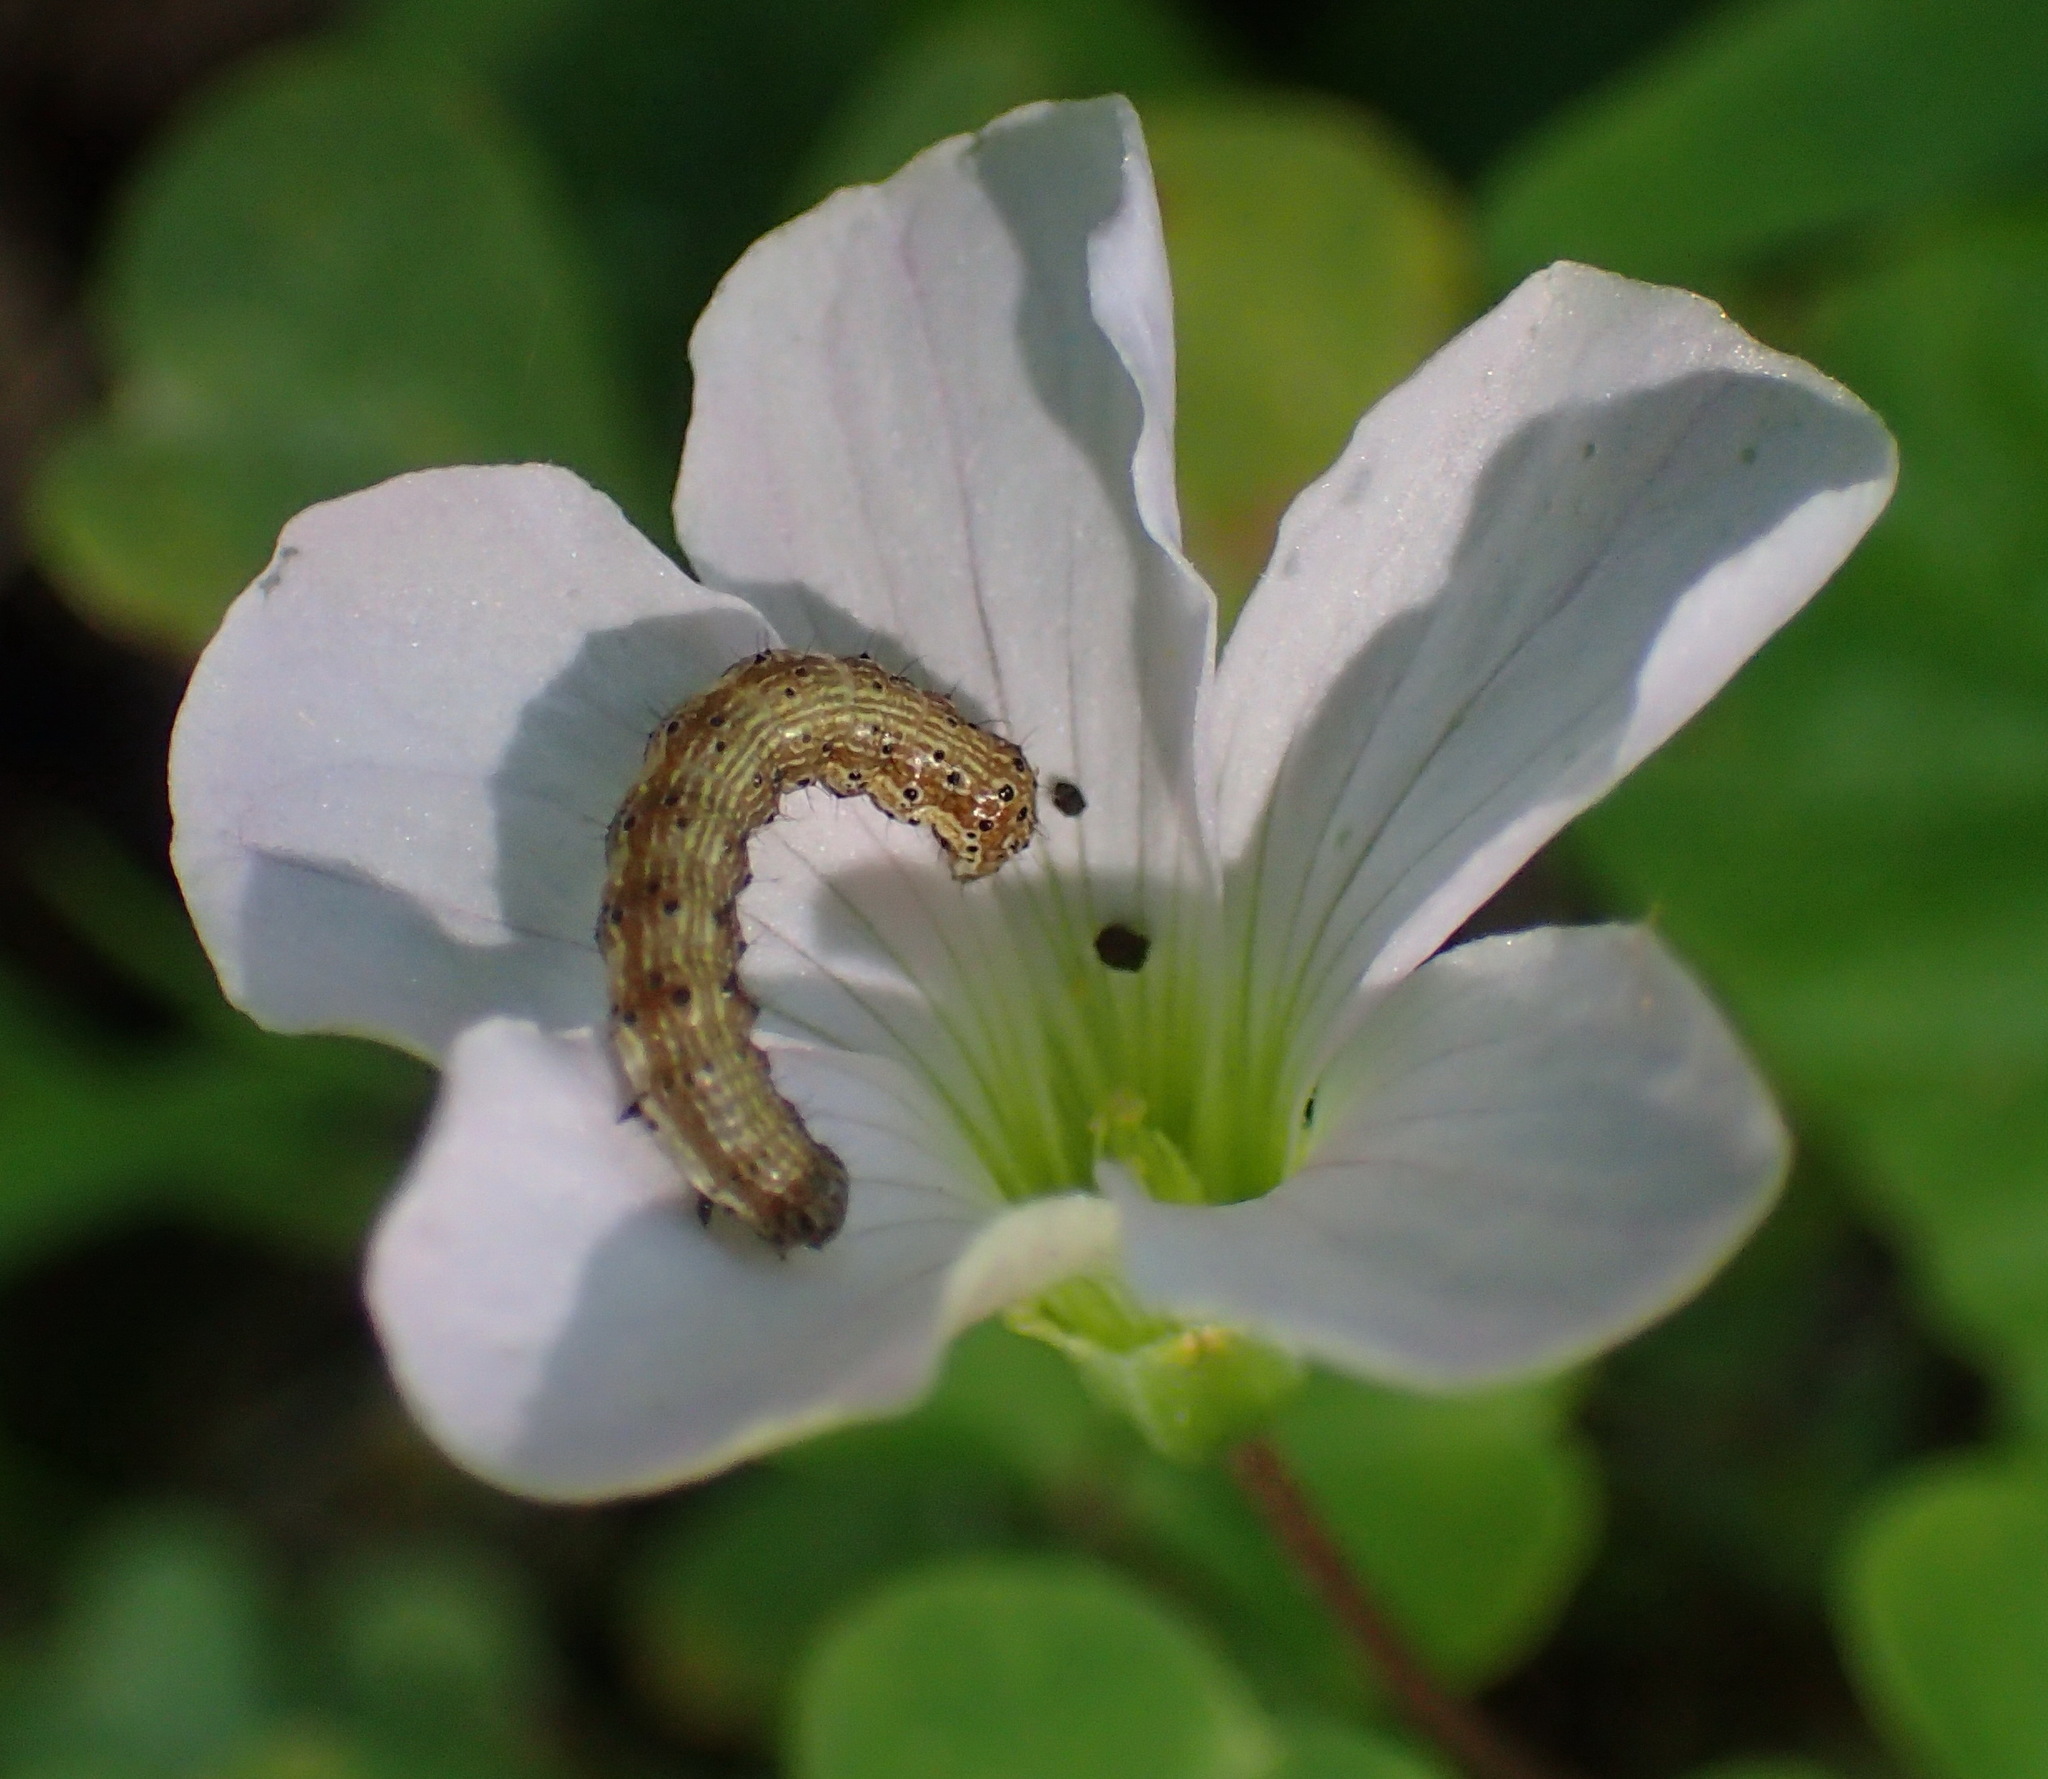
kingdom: Plantae
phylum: Tracheophyta
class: Magnoliopsida
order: Oxalidales
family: Oxalidaceae
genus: Oxalis
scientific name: Oxalis incarnata
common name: Pale pink-sorrel
